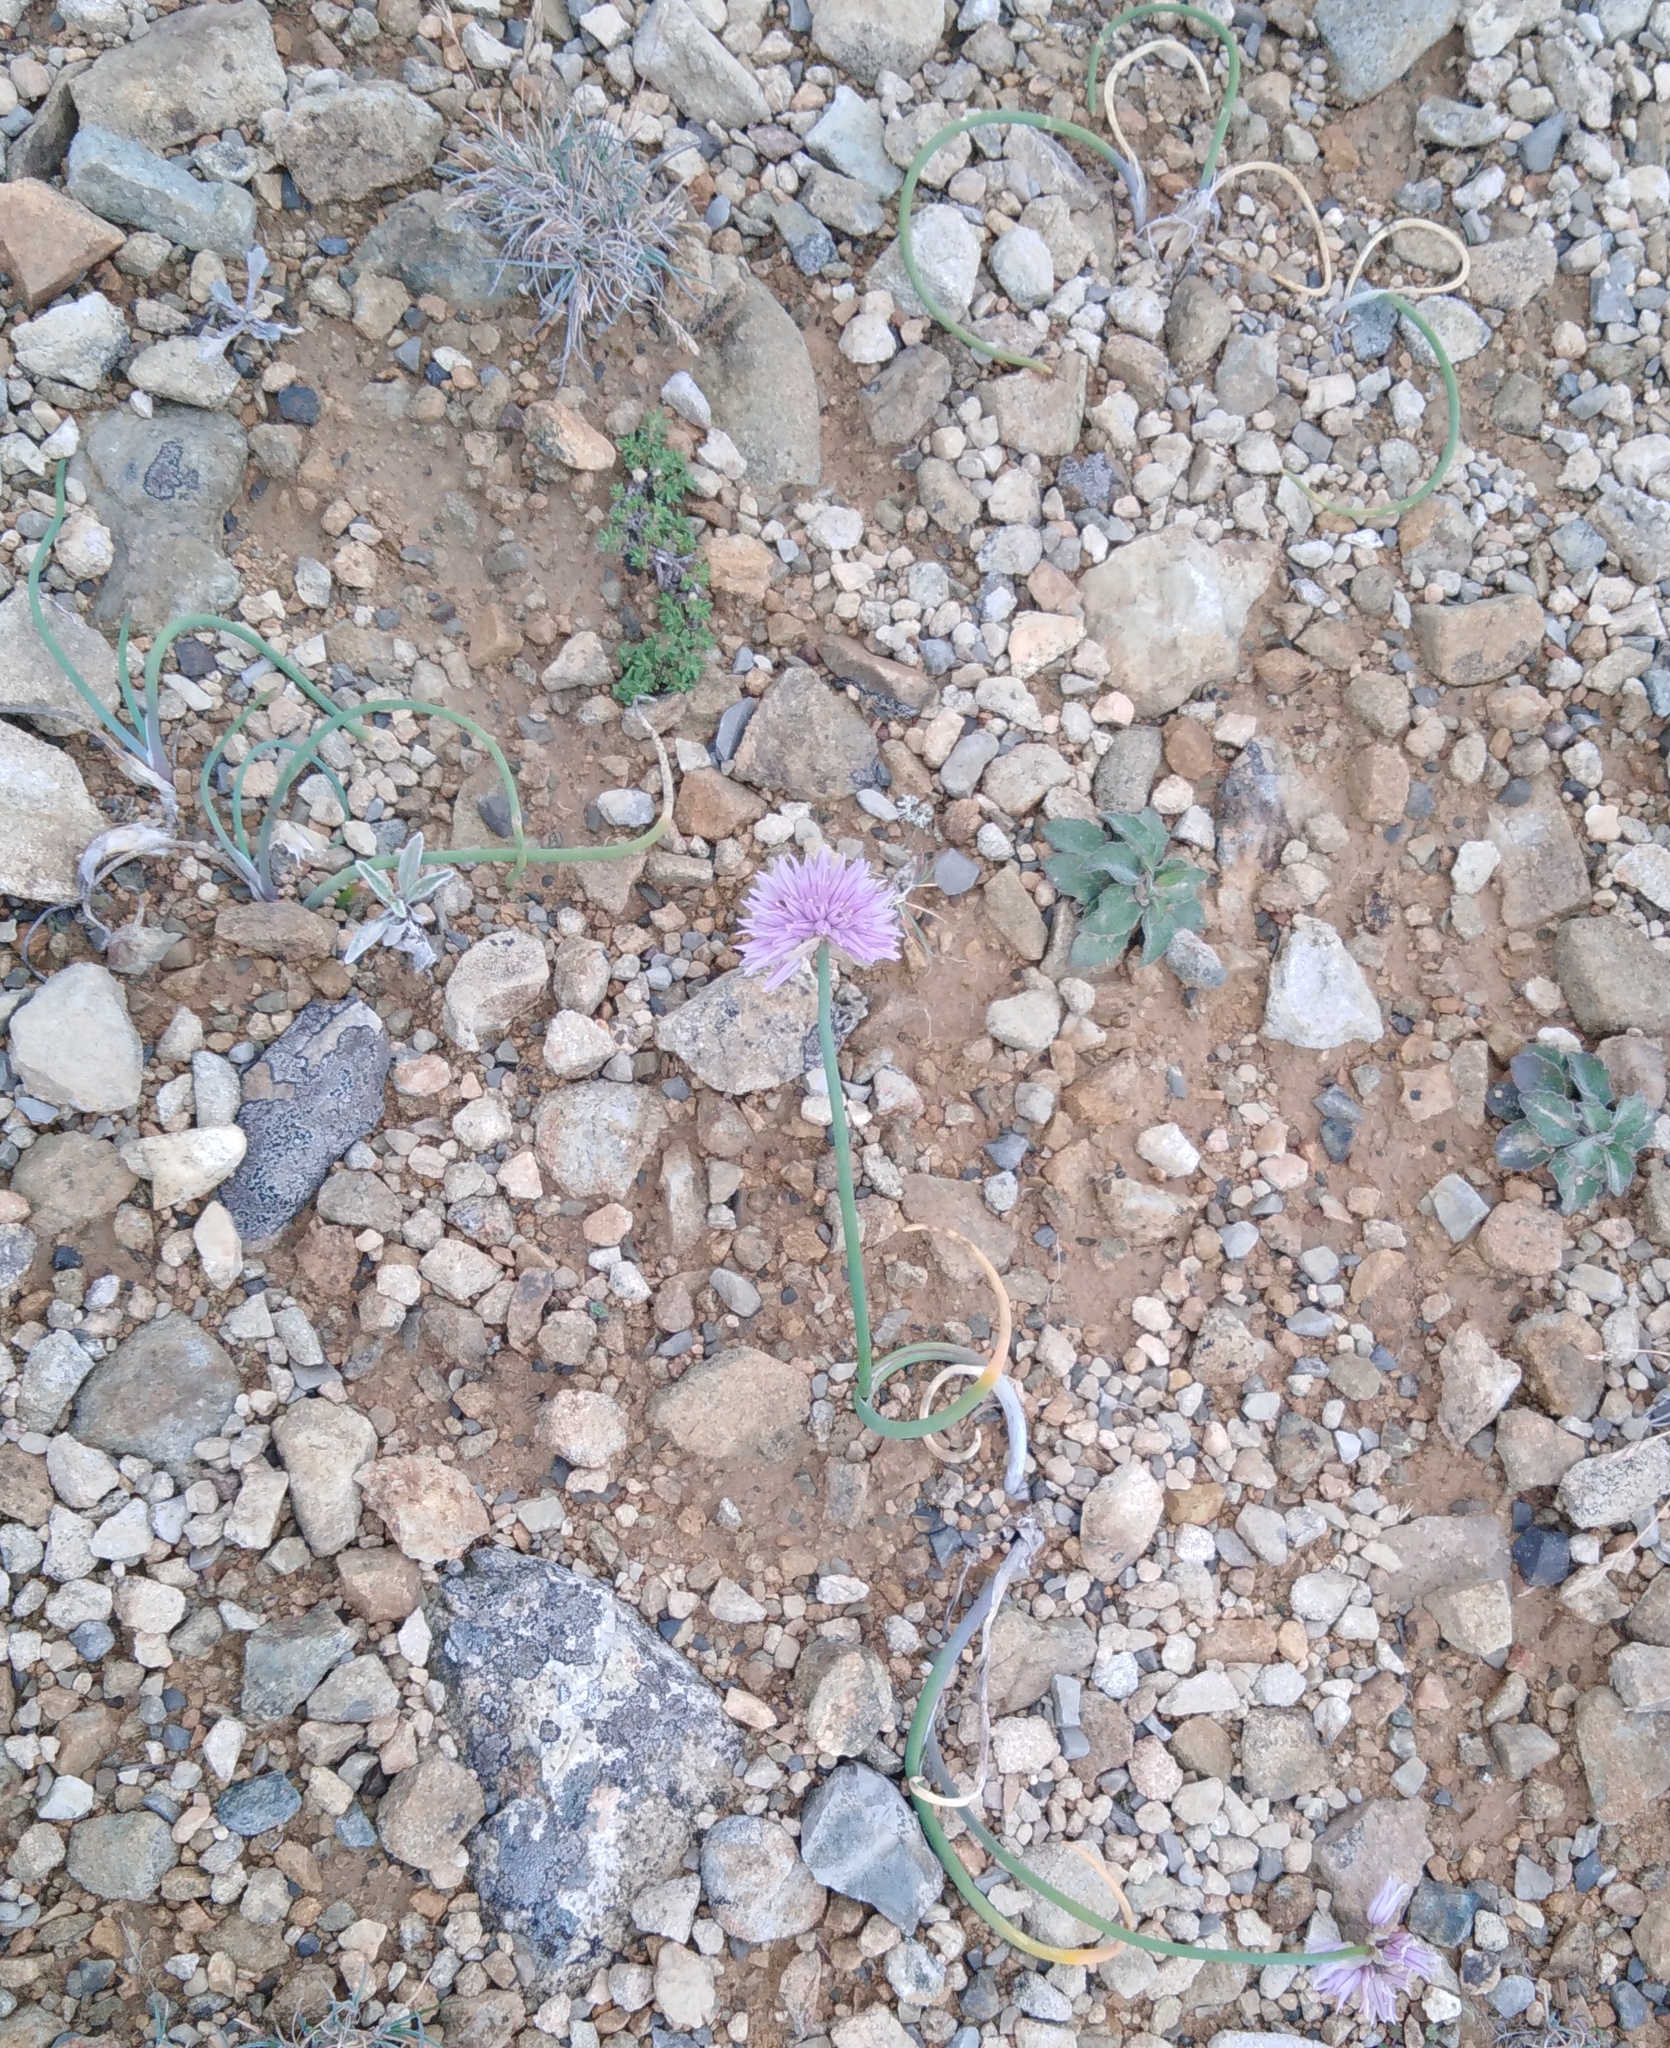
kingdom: Plantae
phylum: Tracheophyta
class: Liliopsida
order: Asparagales
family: Amaryllidaceae
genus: Allium
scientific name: Allium schoenoprasum
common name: Chives
